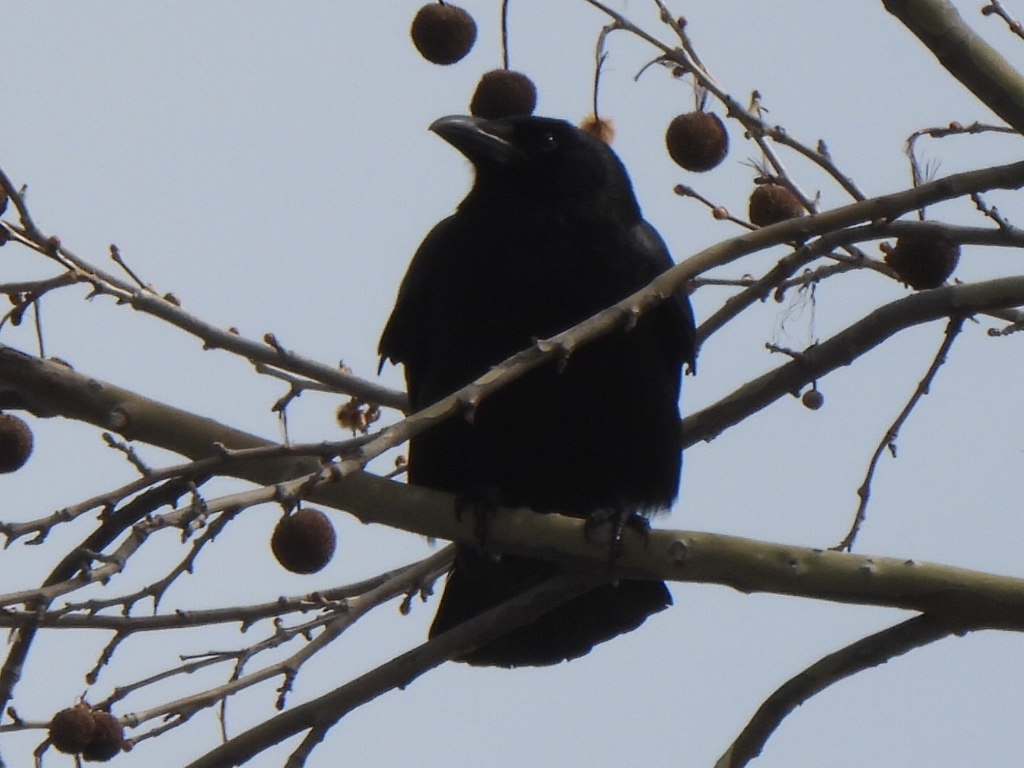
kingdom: Animalia
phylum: Chordata
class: Aves
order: Passeriformes
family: Corvidae
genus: Corvus
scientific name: Corvus brachyrhynchos
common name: American crow
